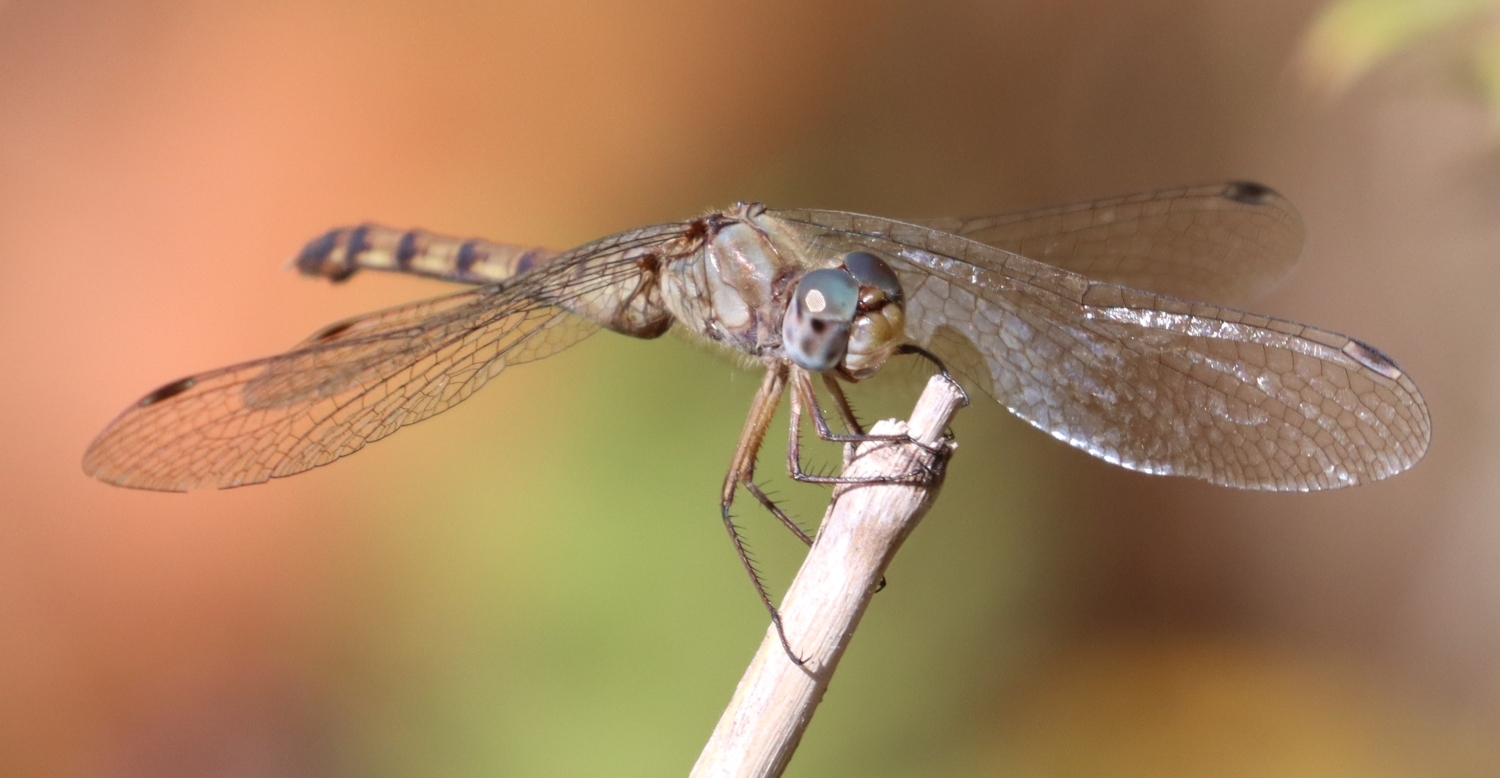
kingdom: Animalia
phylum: Arthropoda
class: Insecta
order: Odonata
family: Libellulidae
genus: Sympetrum
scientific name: Sympetrum ambiguum
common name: Blue-faced meadowhawk
